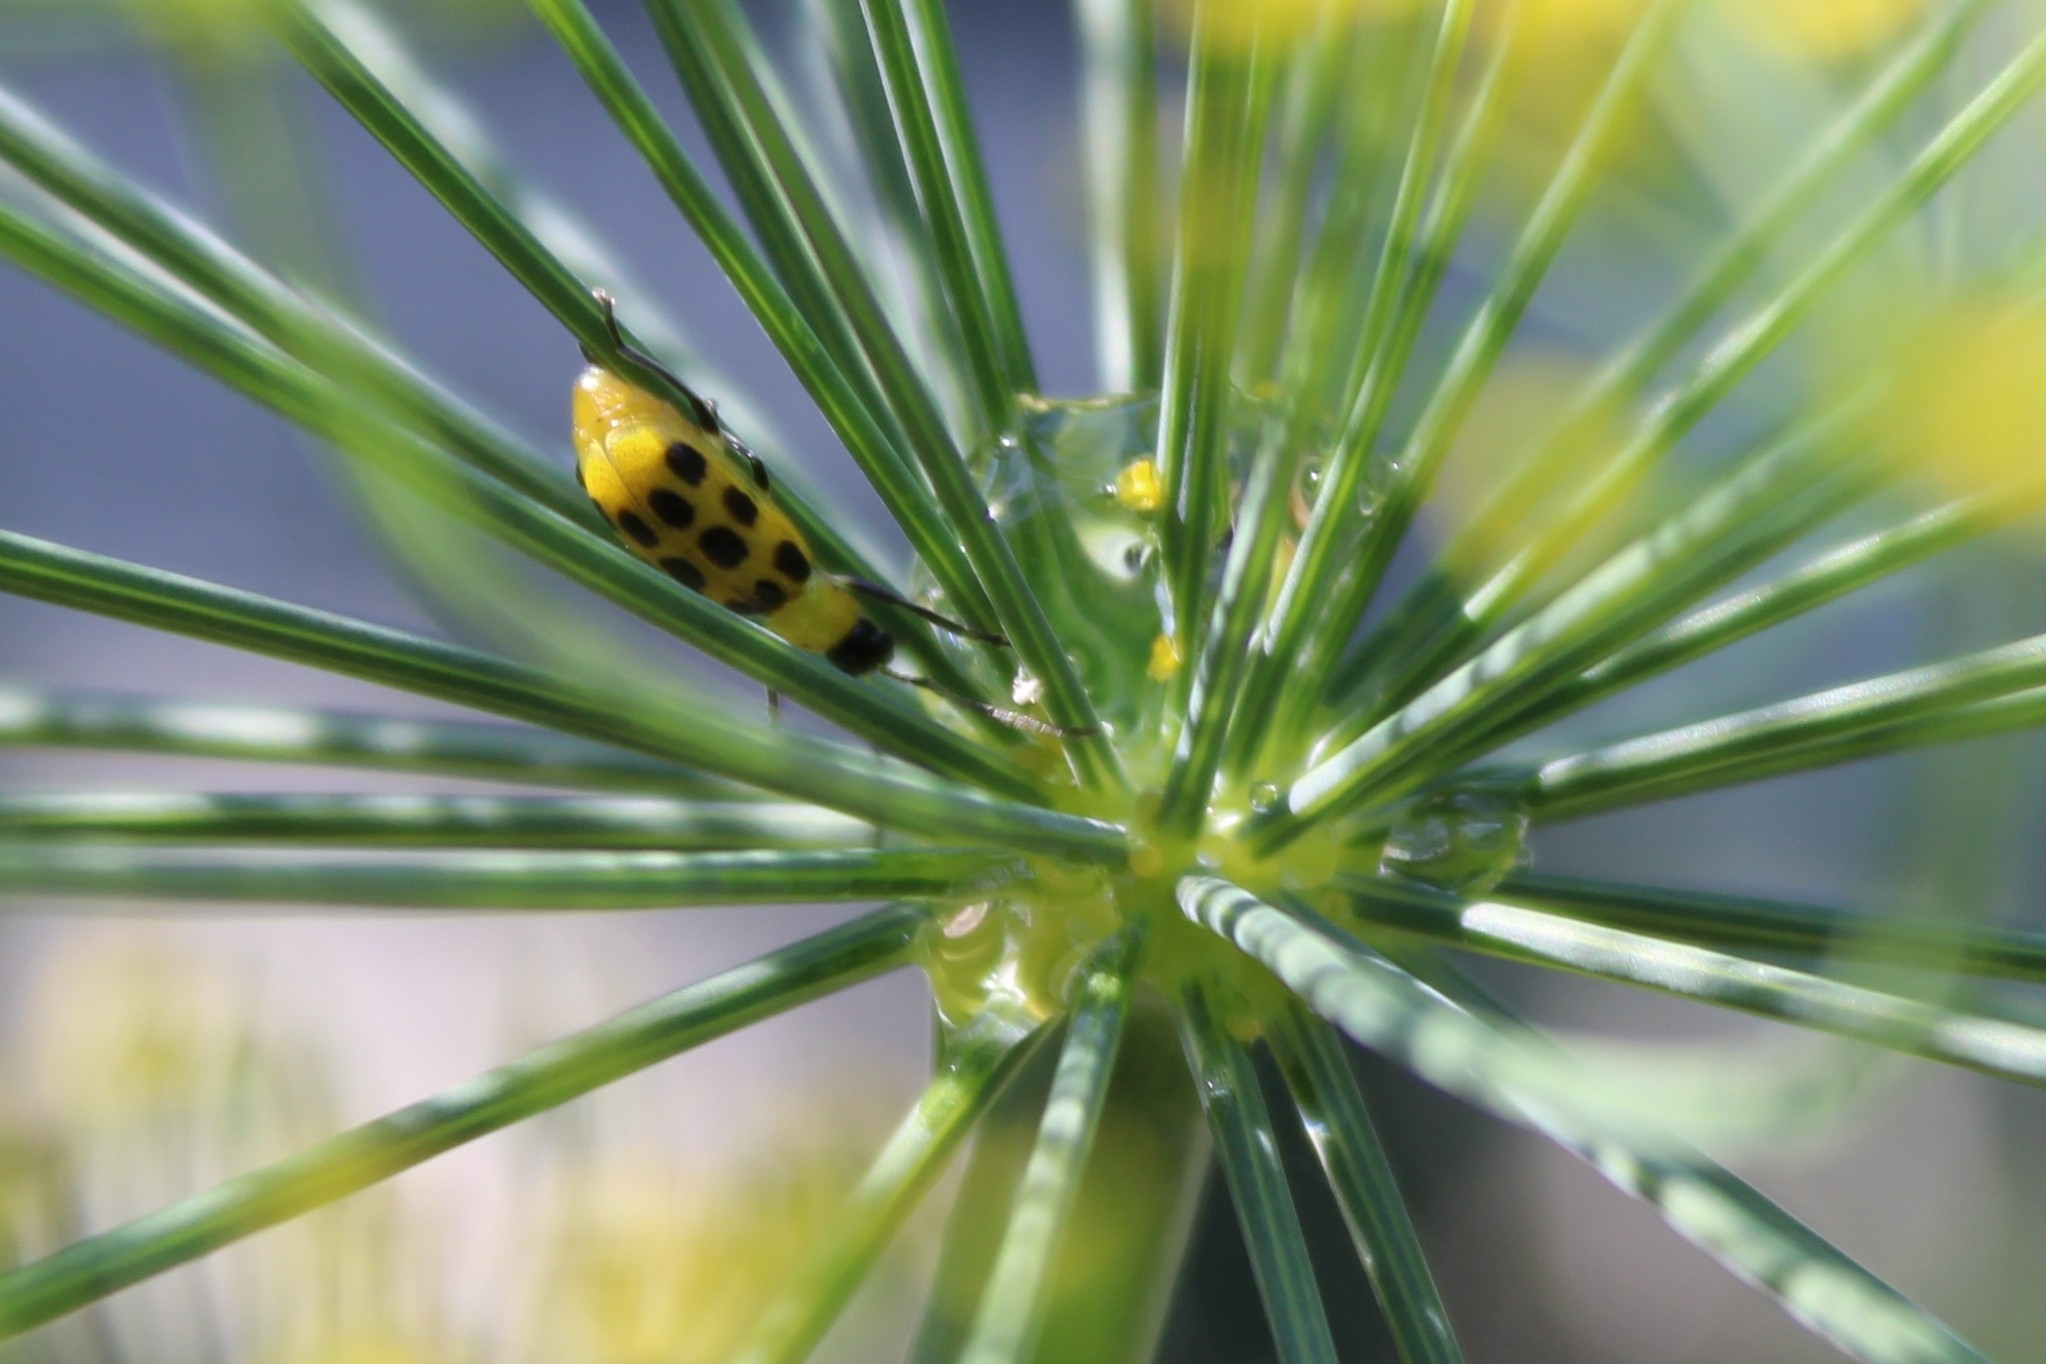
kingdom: Animalia
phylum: Arthropoda
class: Insecta
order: Coleoptera
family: Chrysomelidae
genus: Diabrotica
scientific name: Diabrotica undecimpunctata
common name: Spotted cucumber beetle
